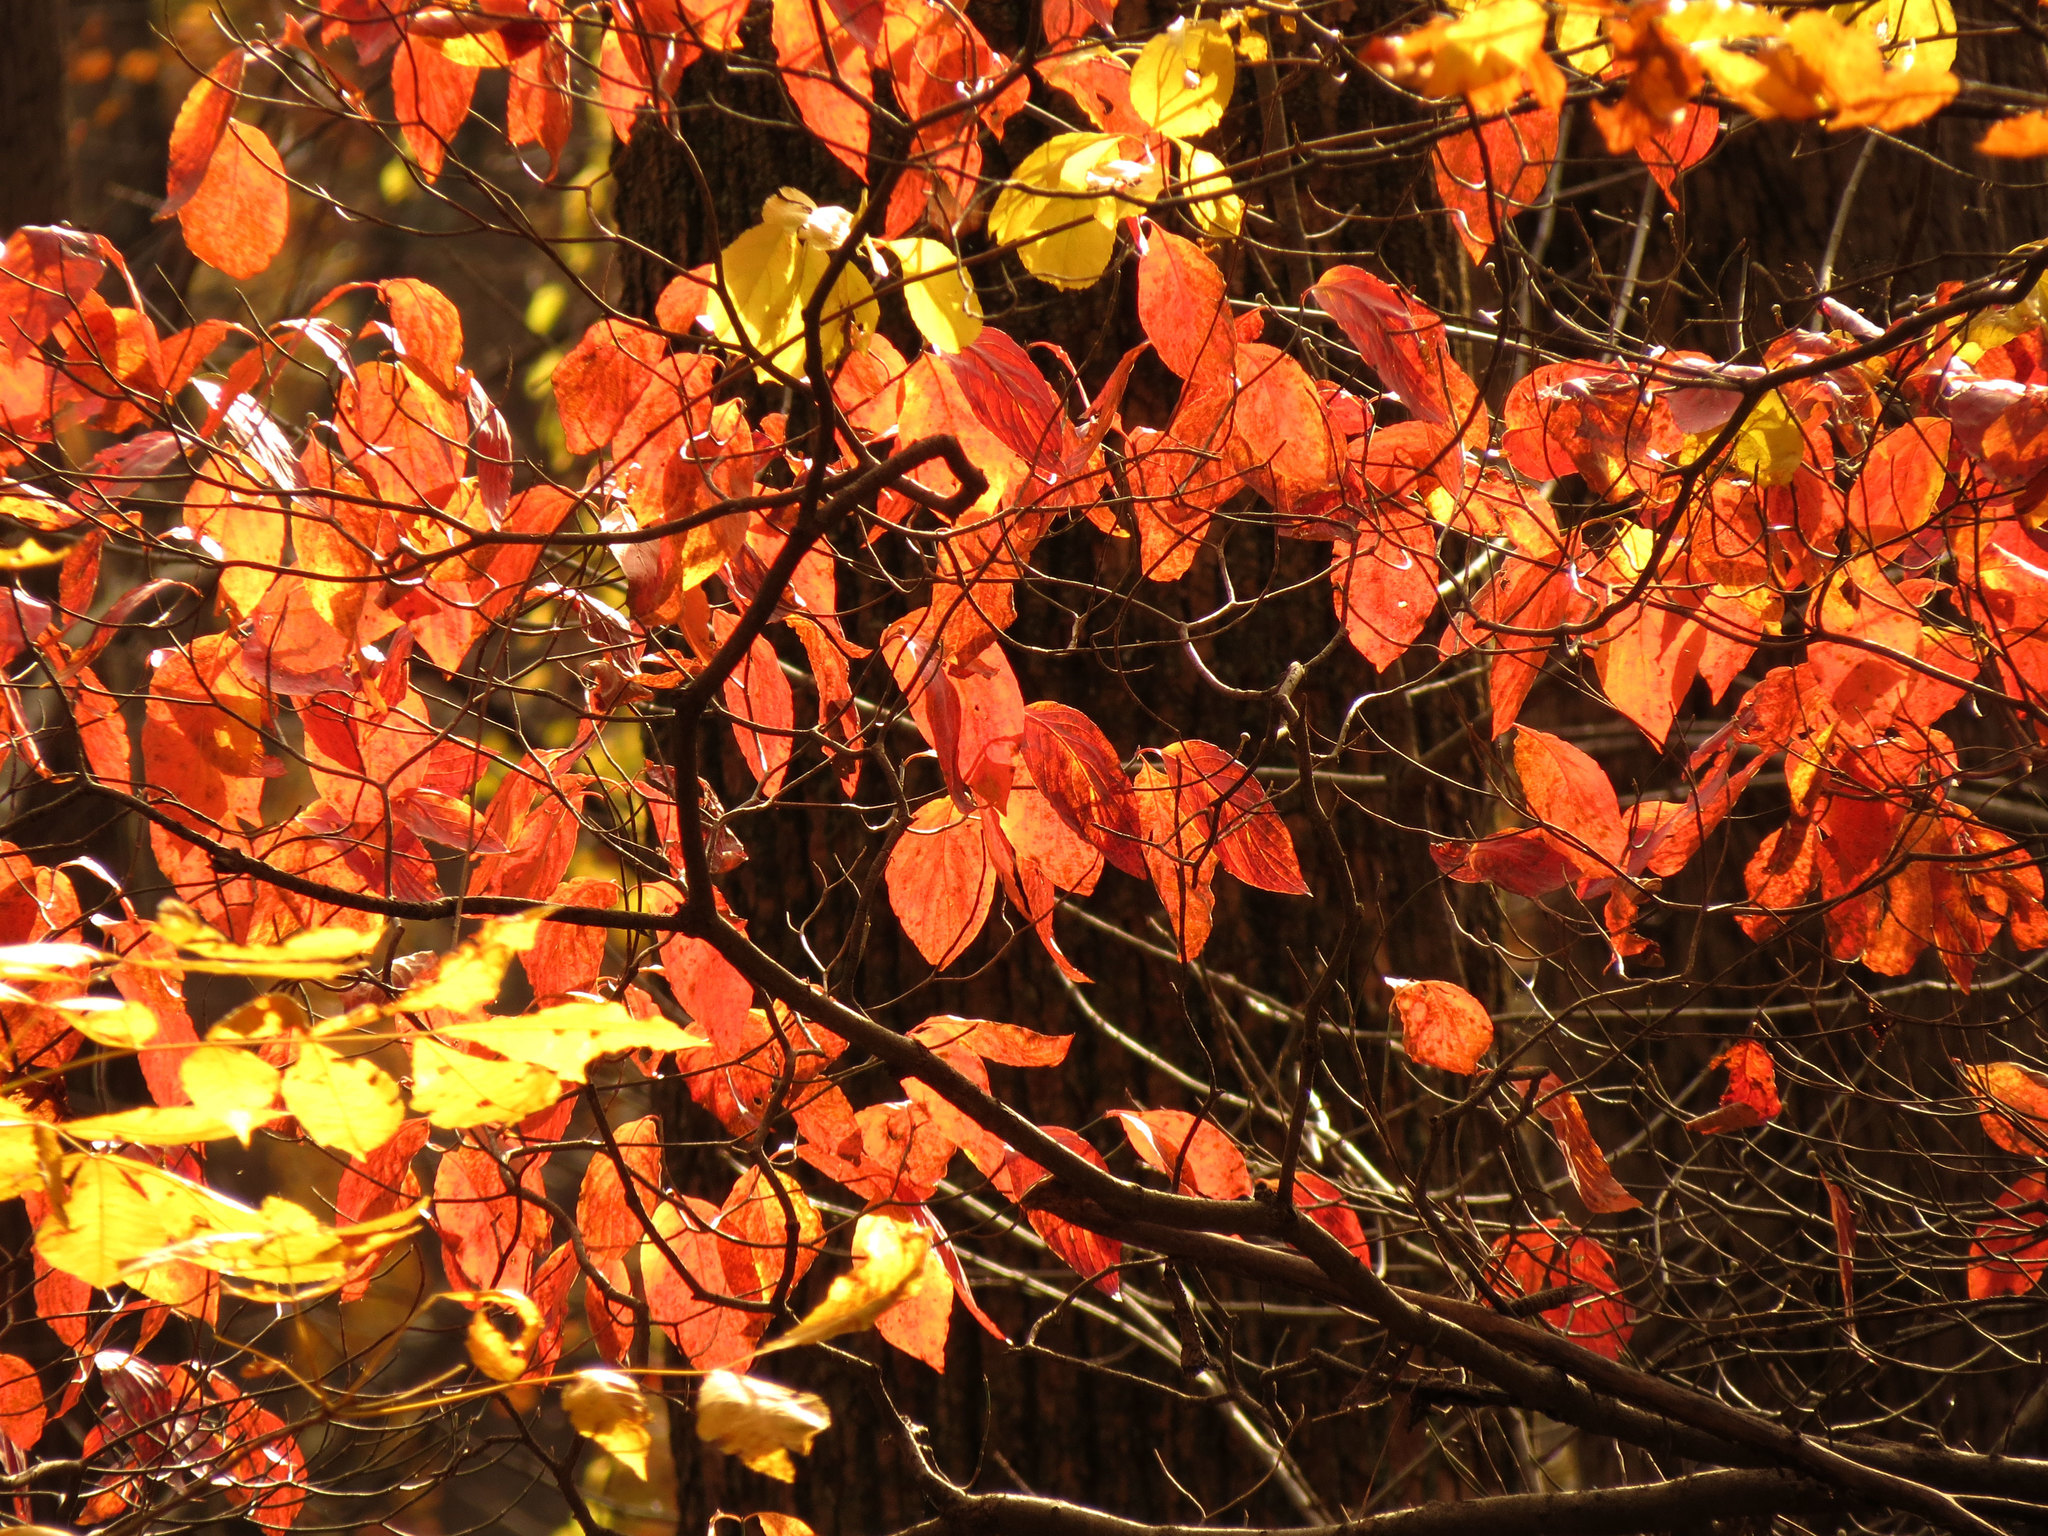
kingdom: Plantae
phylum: Tracheophyta
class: Magnoliopsida
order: Cornales
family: Cornaceae
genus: Cornus
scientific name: Cornus florida
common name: Flowering dogwood
